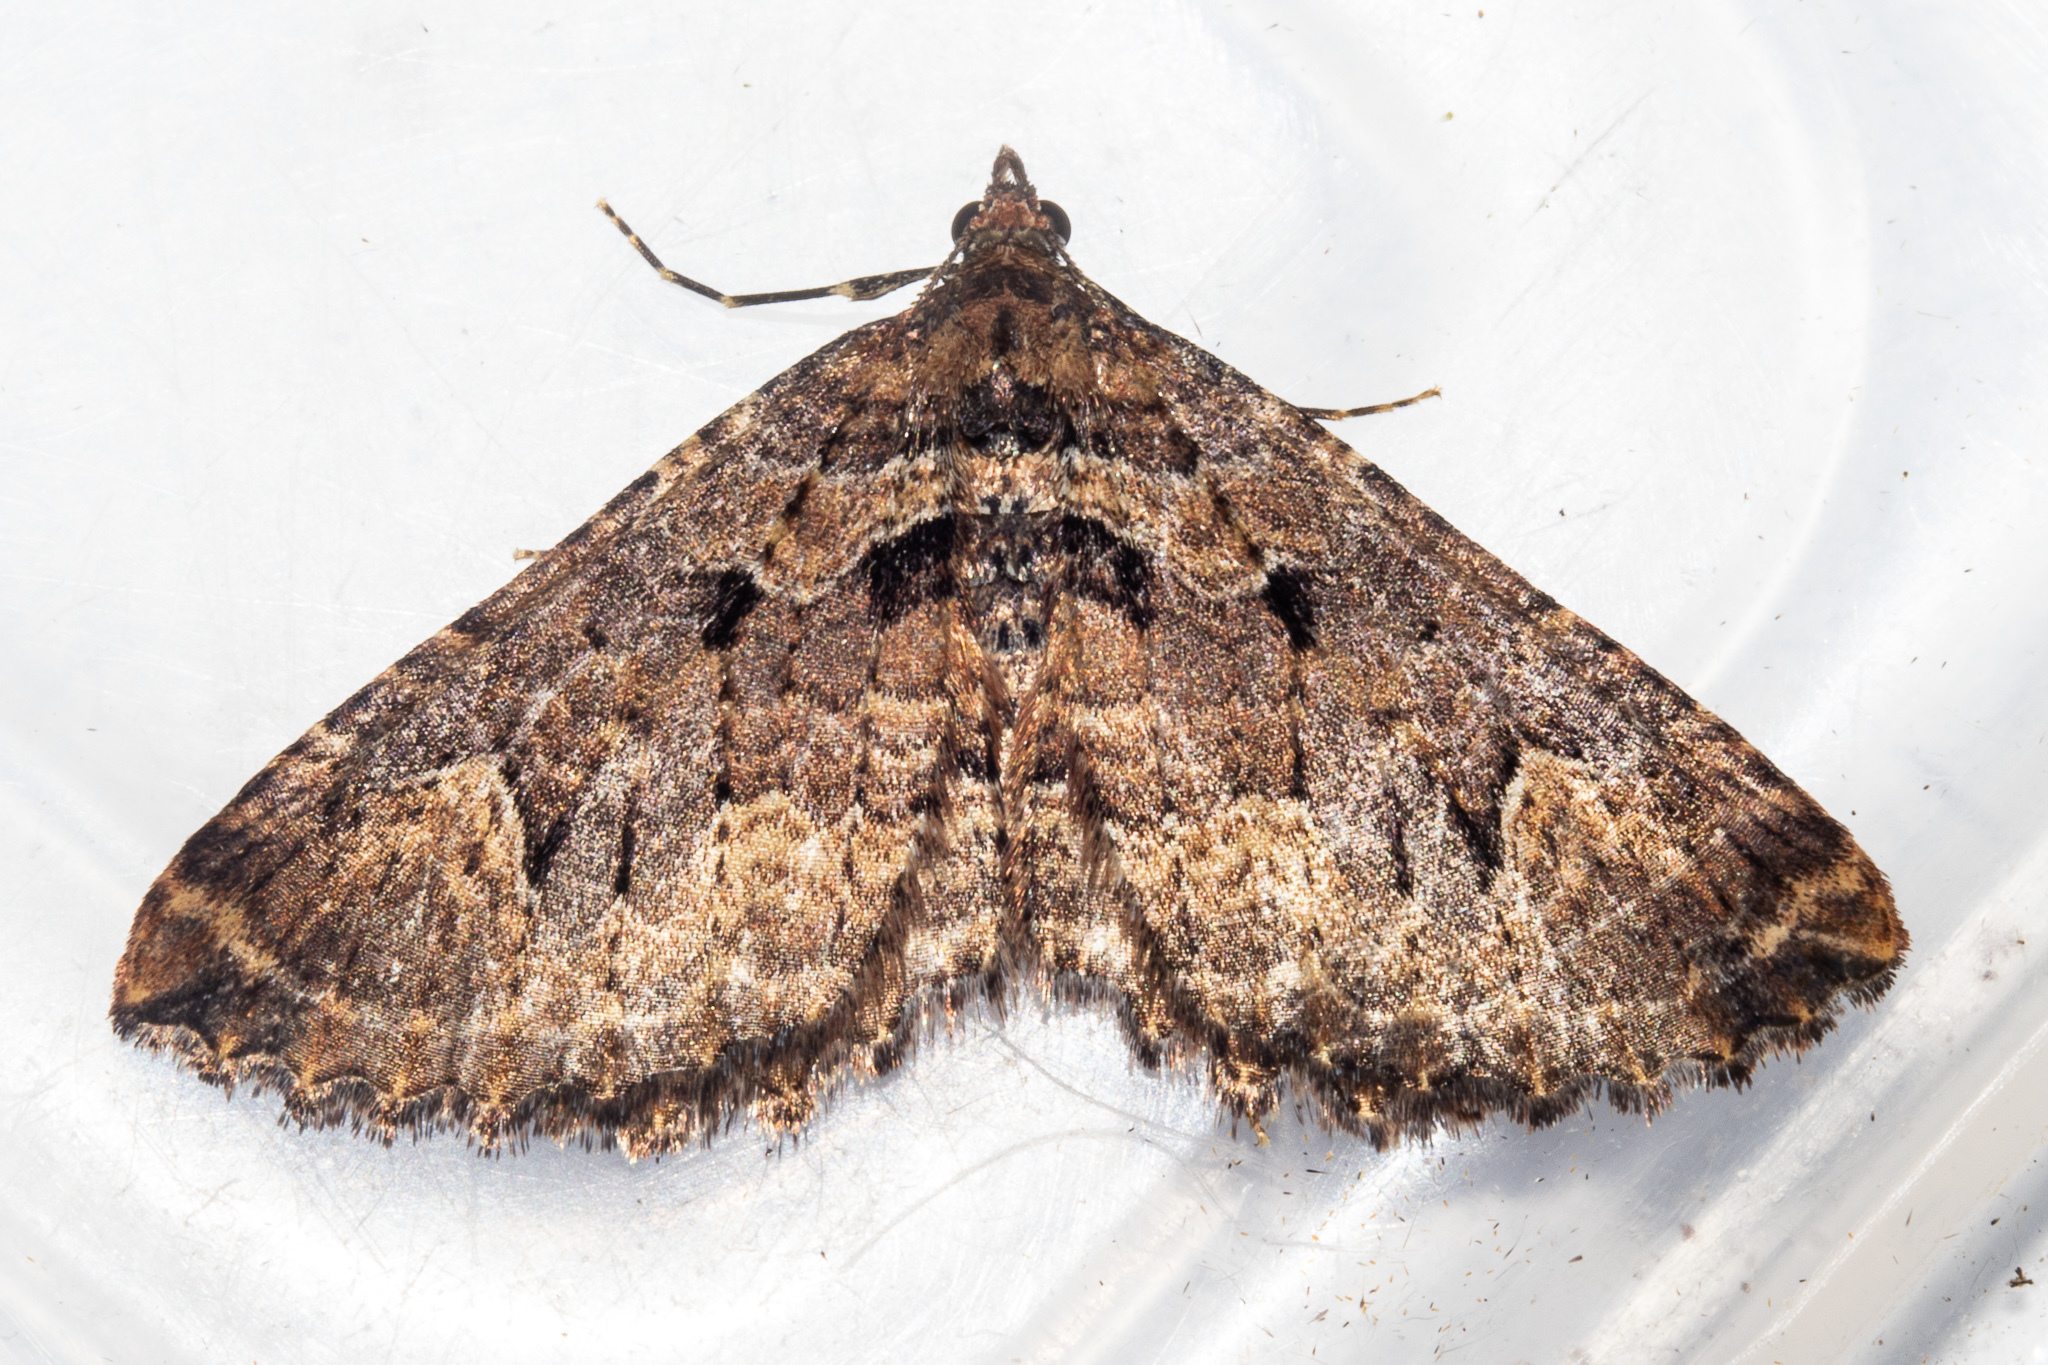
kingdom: Animalia
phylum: Arthropoda
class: Insecta
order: Lepidoptera
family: Geometridae
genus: Austrocidaria
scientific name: Austrocidaria cedrinodes
